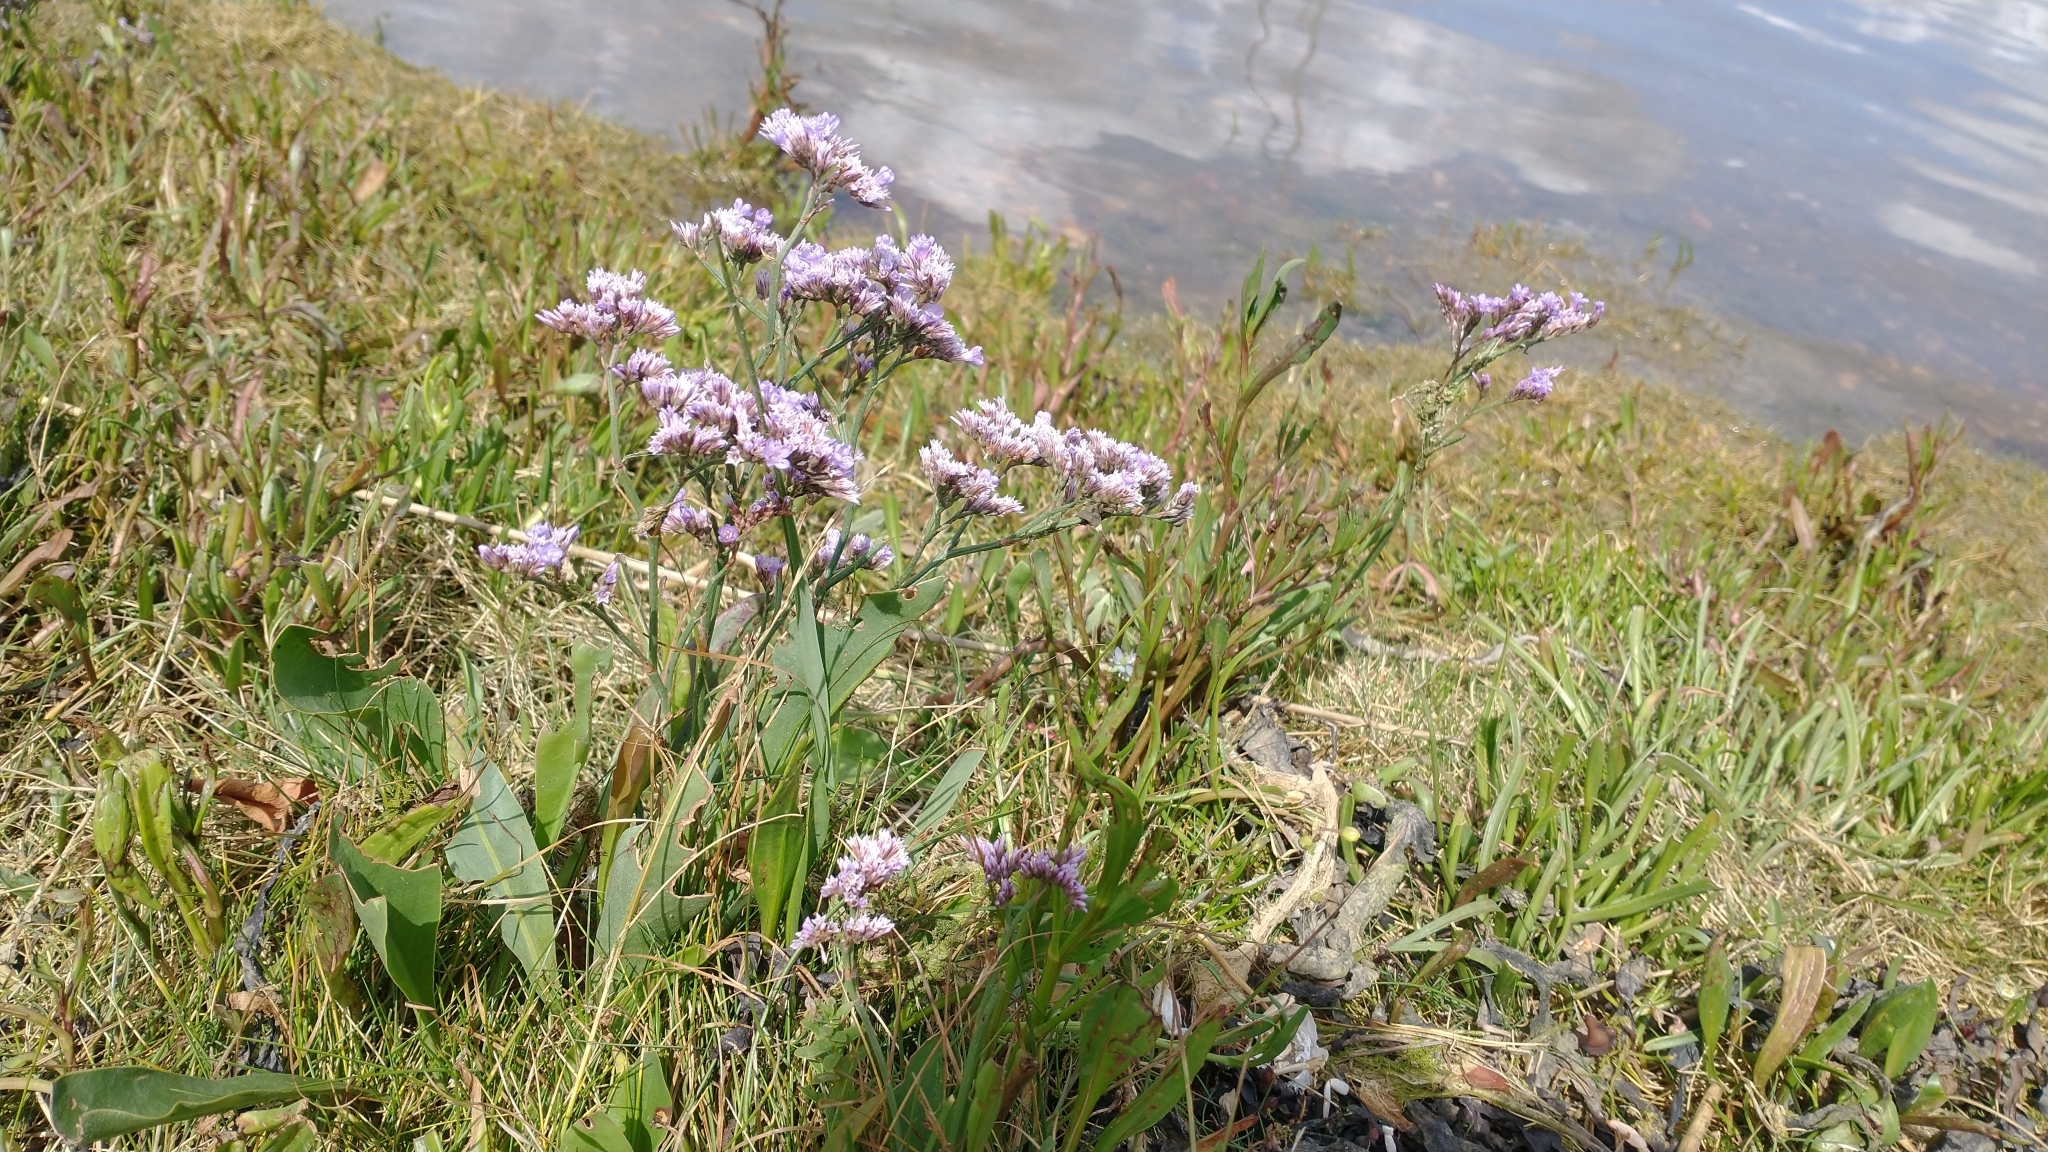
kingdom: Plantae
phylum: Tracheophyta
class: Magnoliopsida
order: Caryophyllales
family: Plumbaginaceae
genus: Limonium
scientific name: Limonium vulgare
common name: Common sea-lavender
